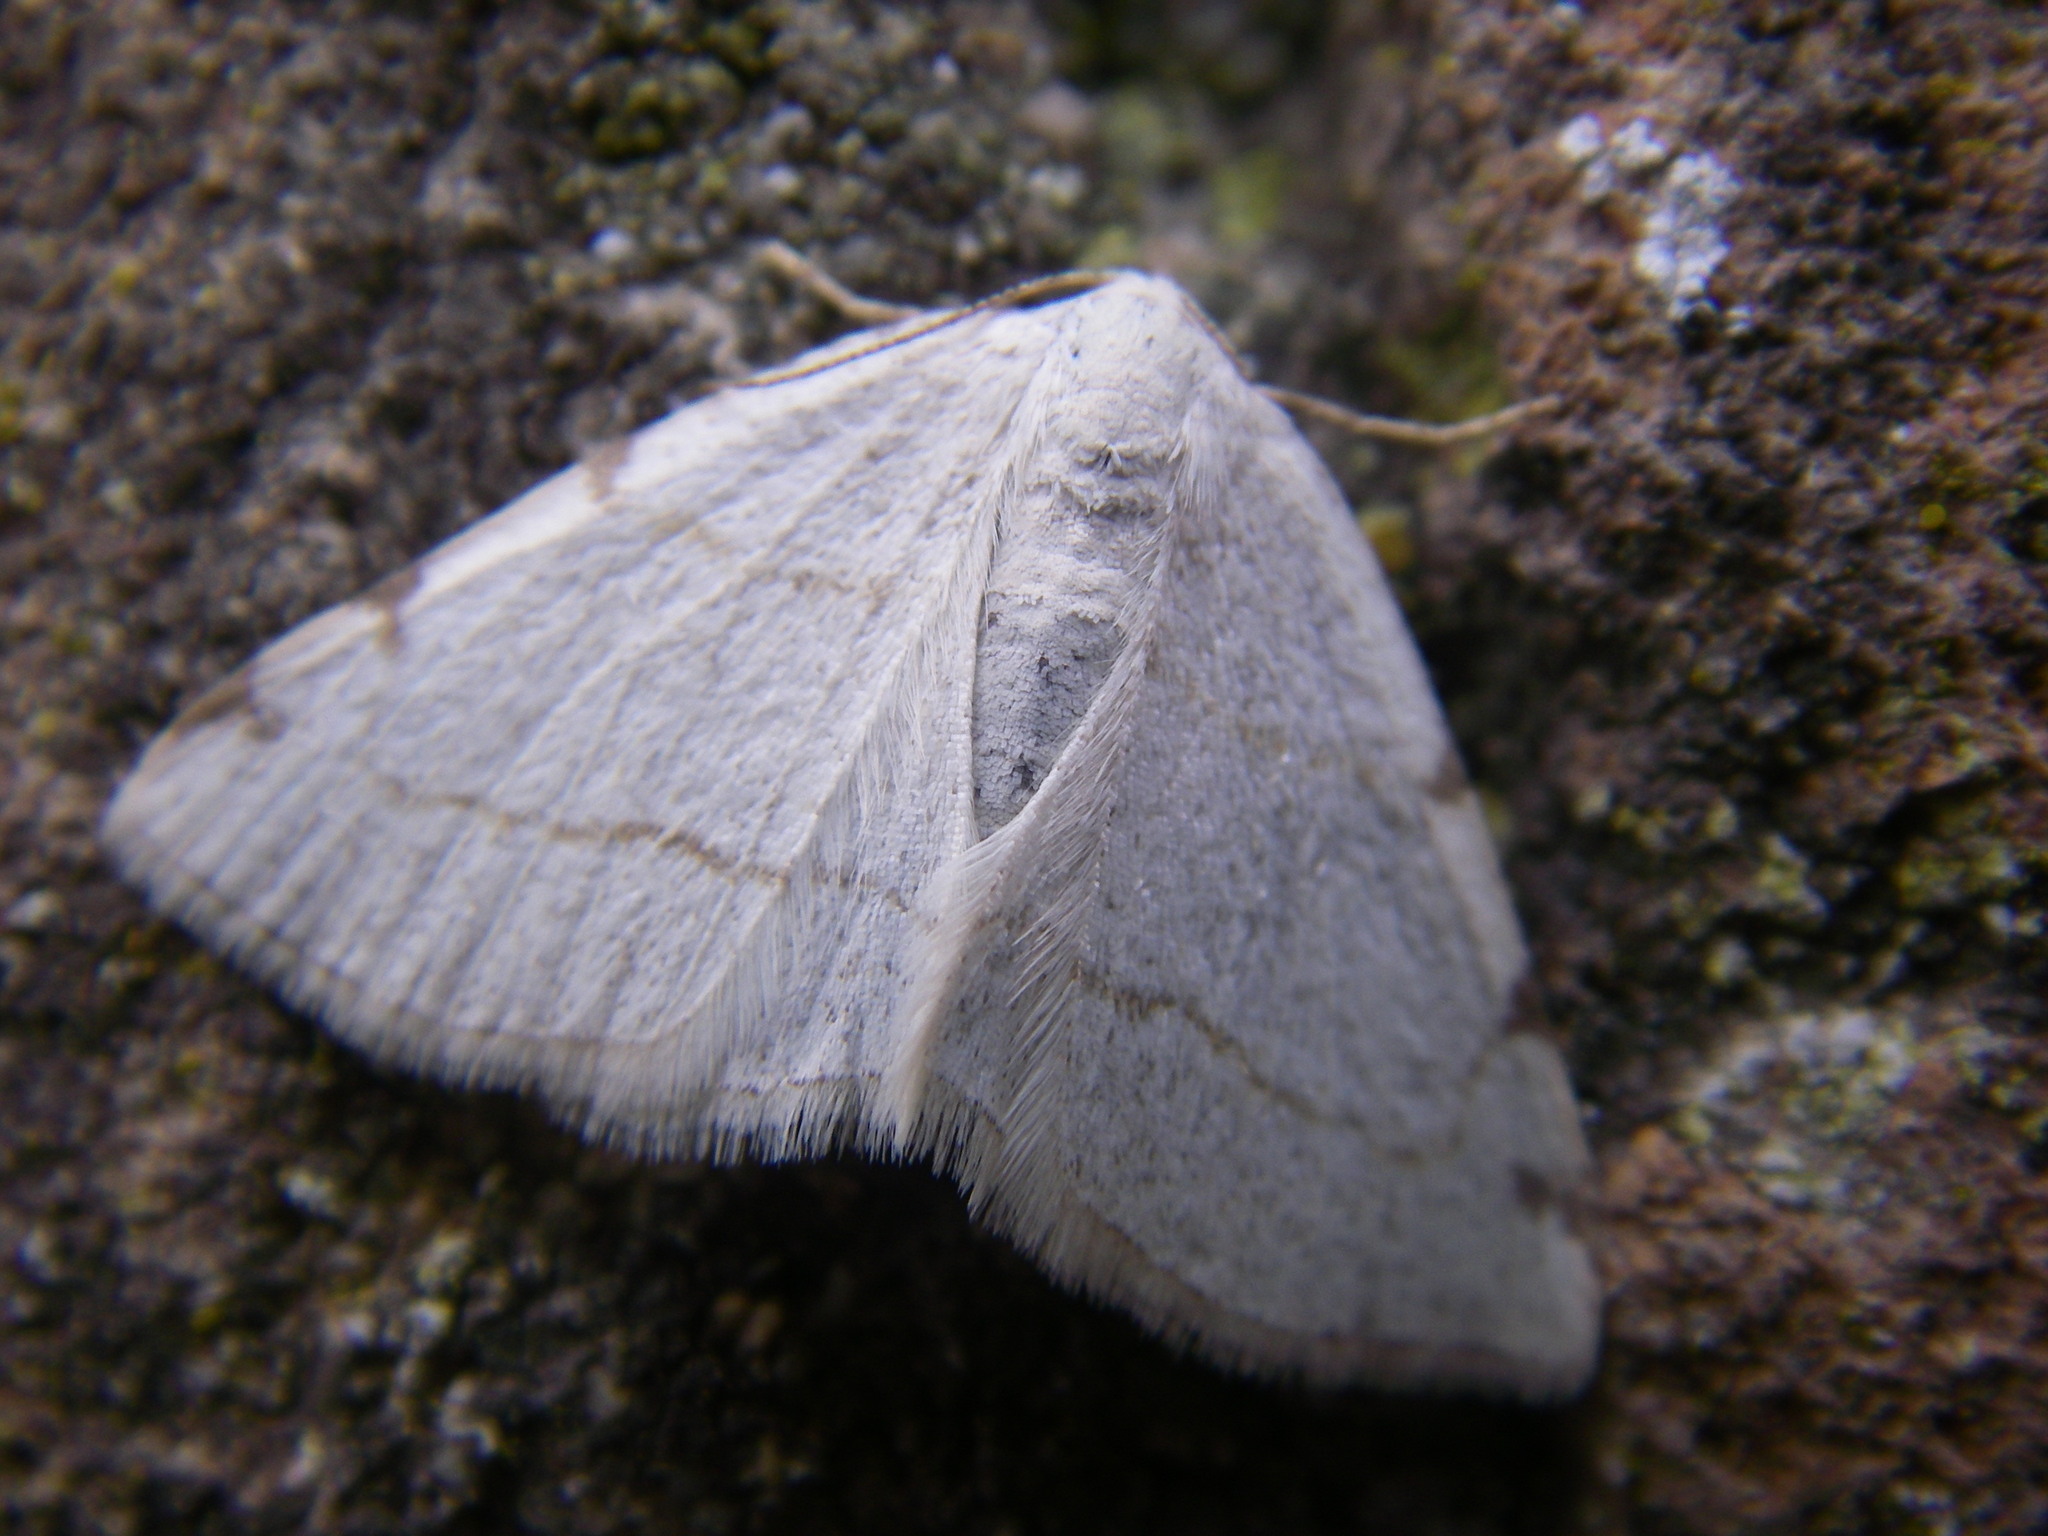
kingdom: Animalia
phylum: Arthropoda
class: Insecta
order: Lepidoptera
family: Geometridae
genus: Stegania
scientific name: Stegania trimaculata
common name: Dorset cream wave
